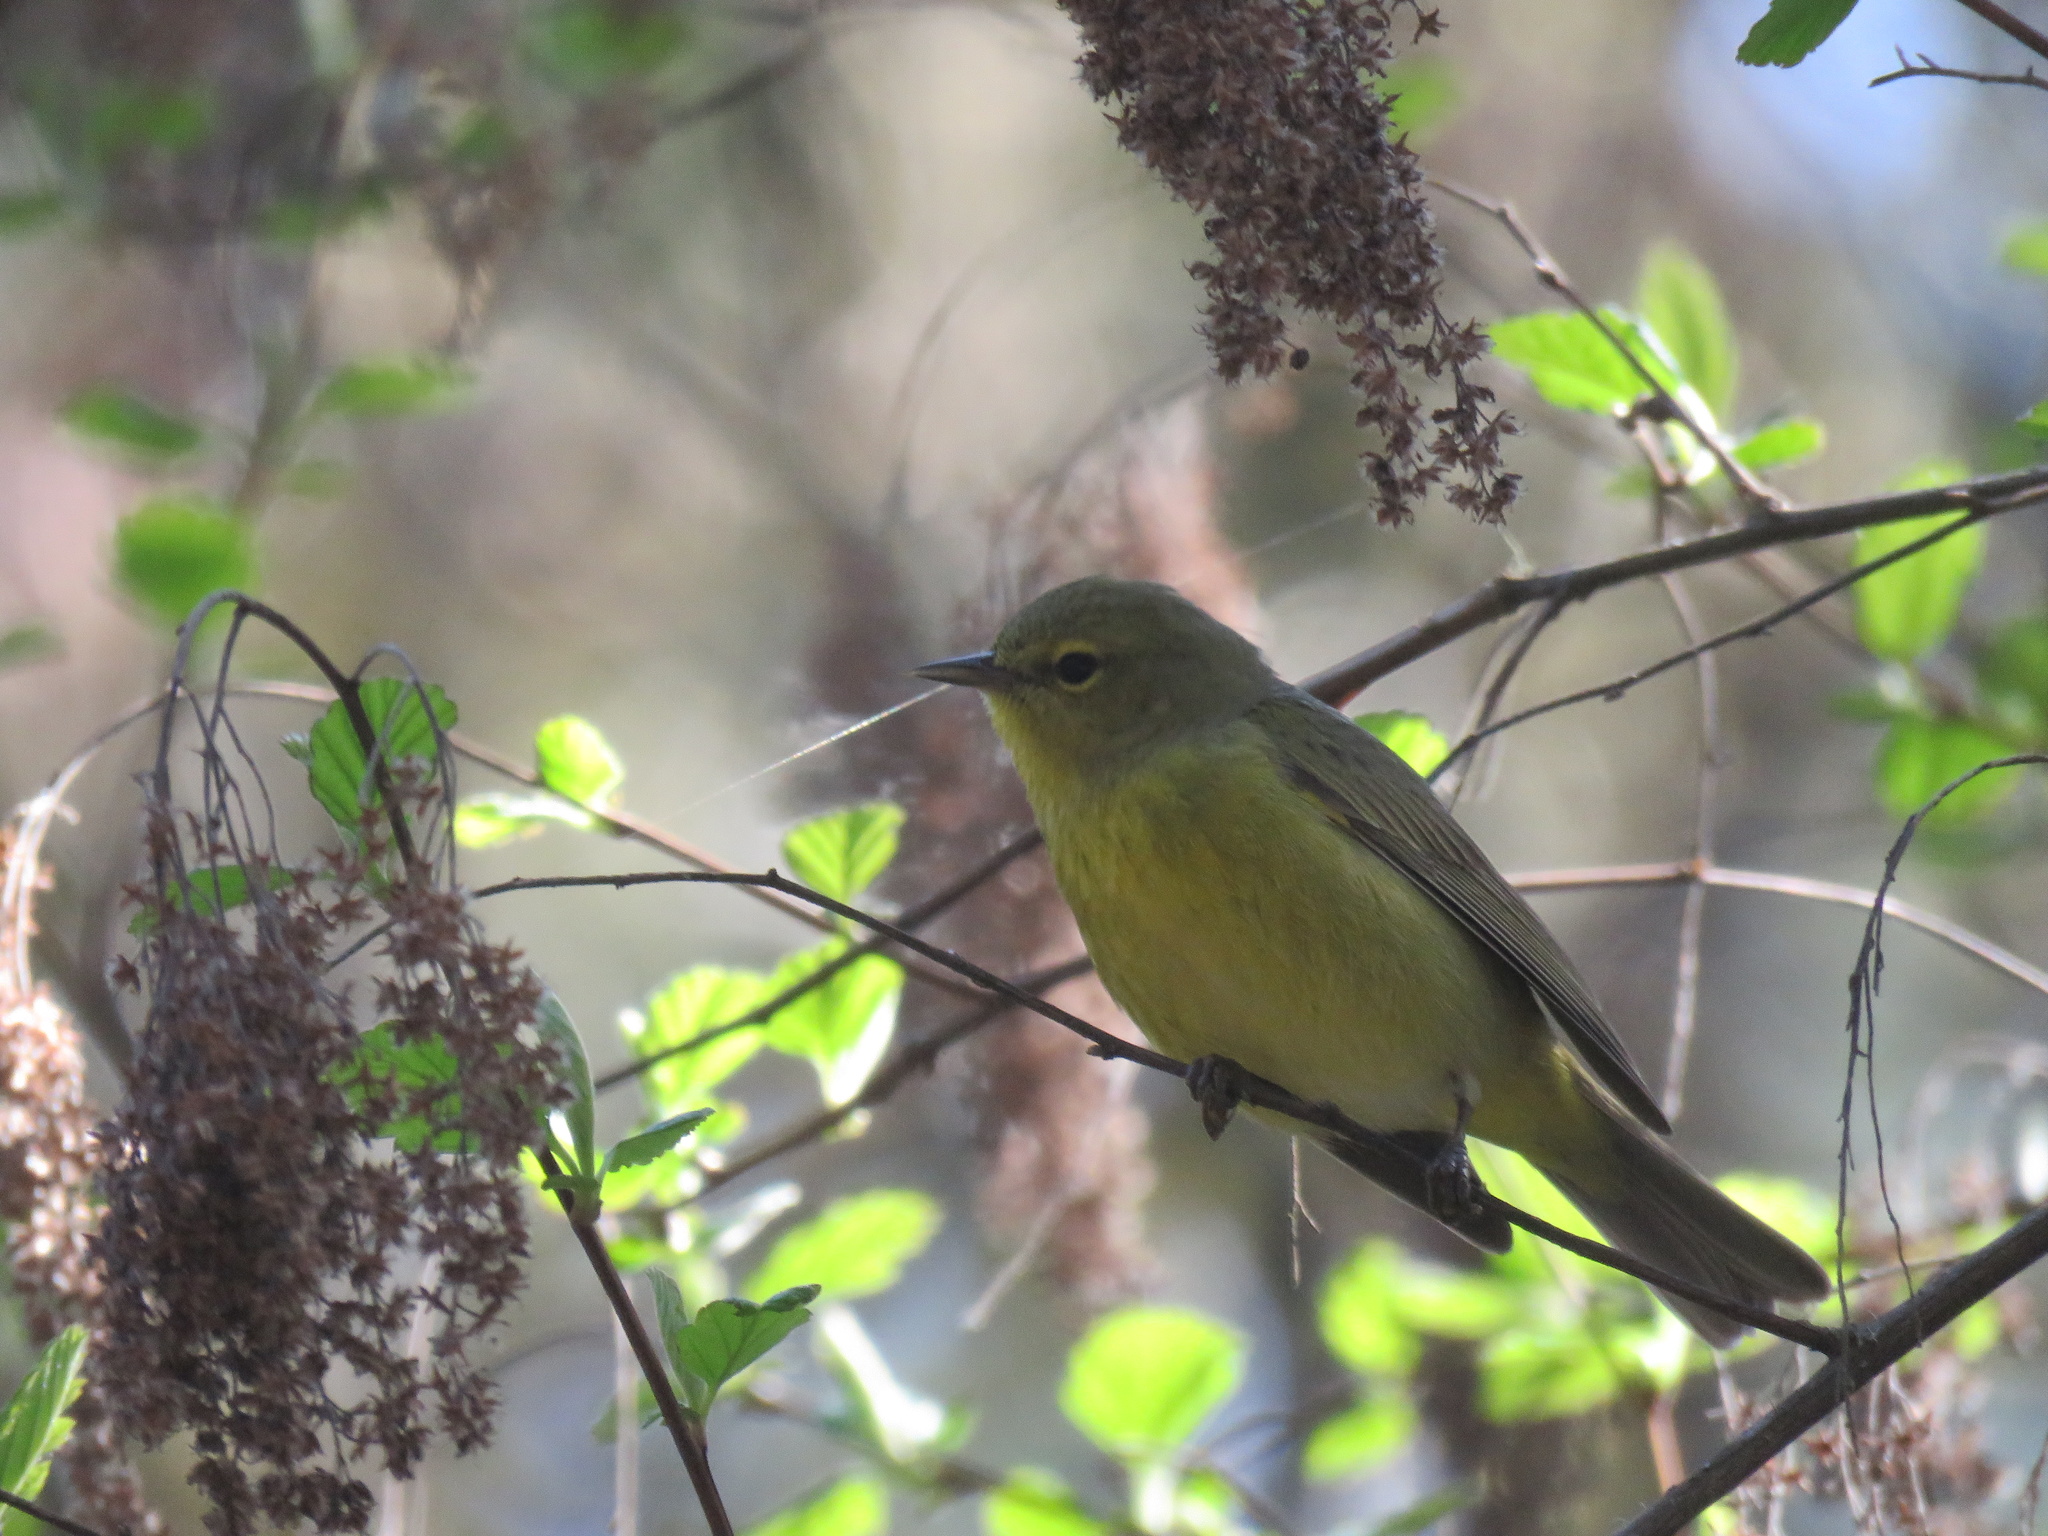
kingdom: Animalia
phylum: Chordata
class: Aves
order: Passeriformes
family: Parulidae
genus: Leiothlypis
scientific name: Leiothlypis celata
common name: Orange-crowned warbler
